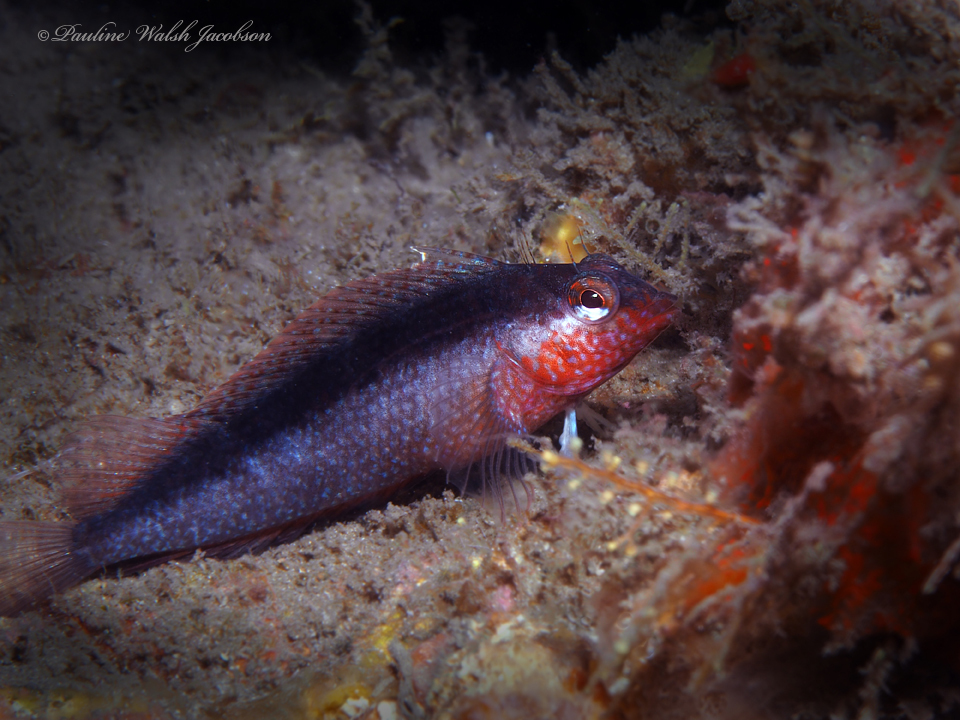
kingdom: Animalia
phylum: Chordata
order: Perciformes
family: Labrisomidae
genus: Malacoctenus
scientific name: Malacoctenus macropus
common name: Rosy blenny
